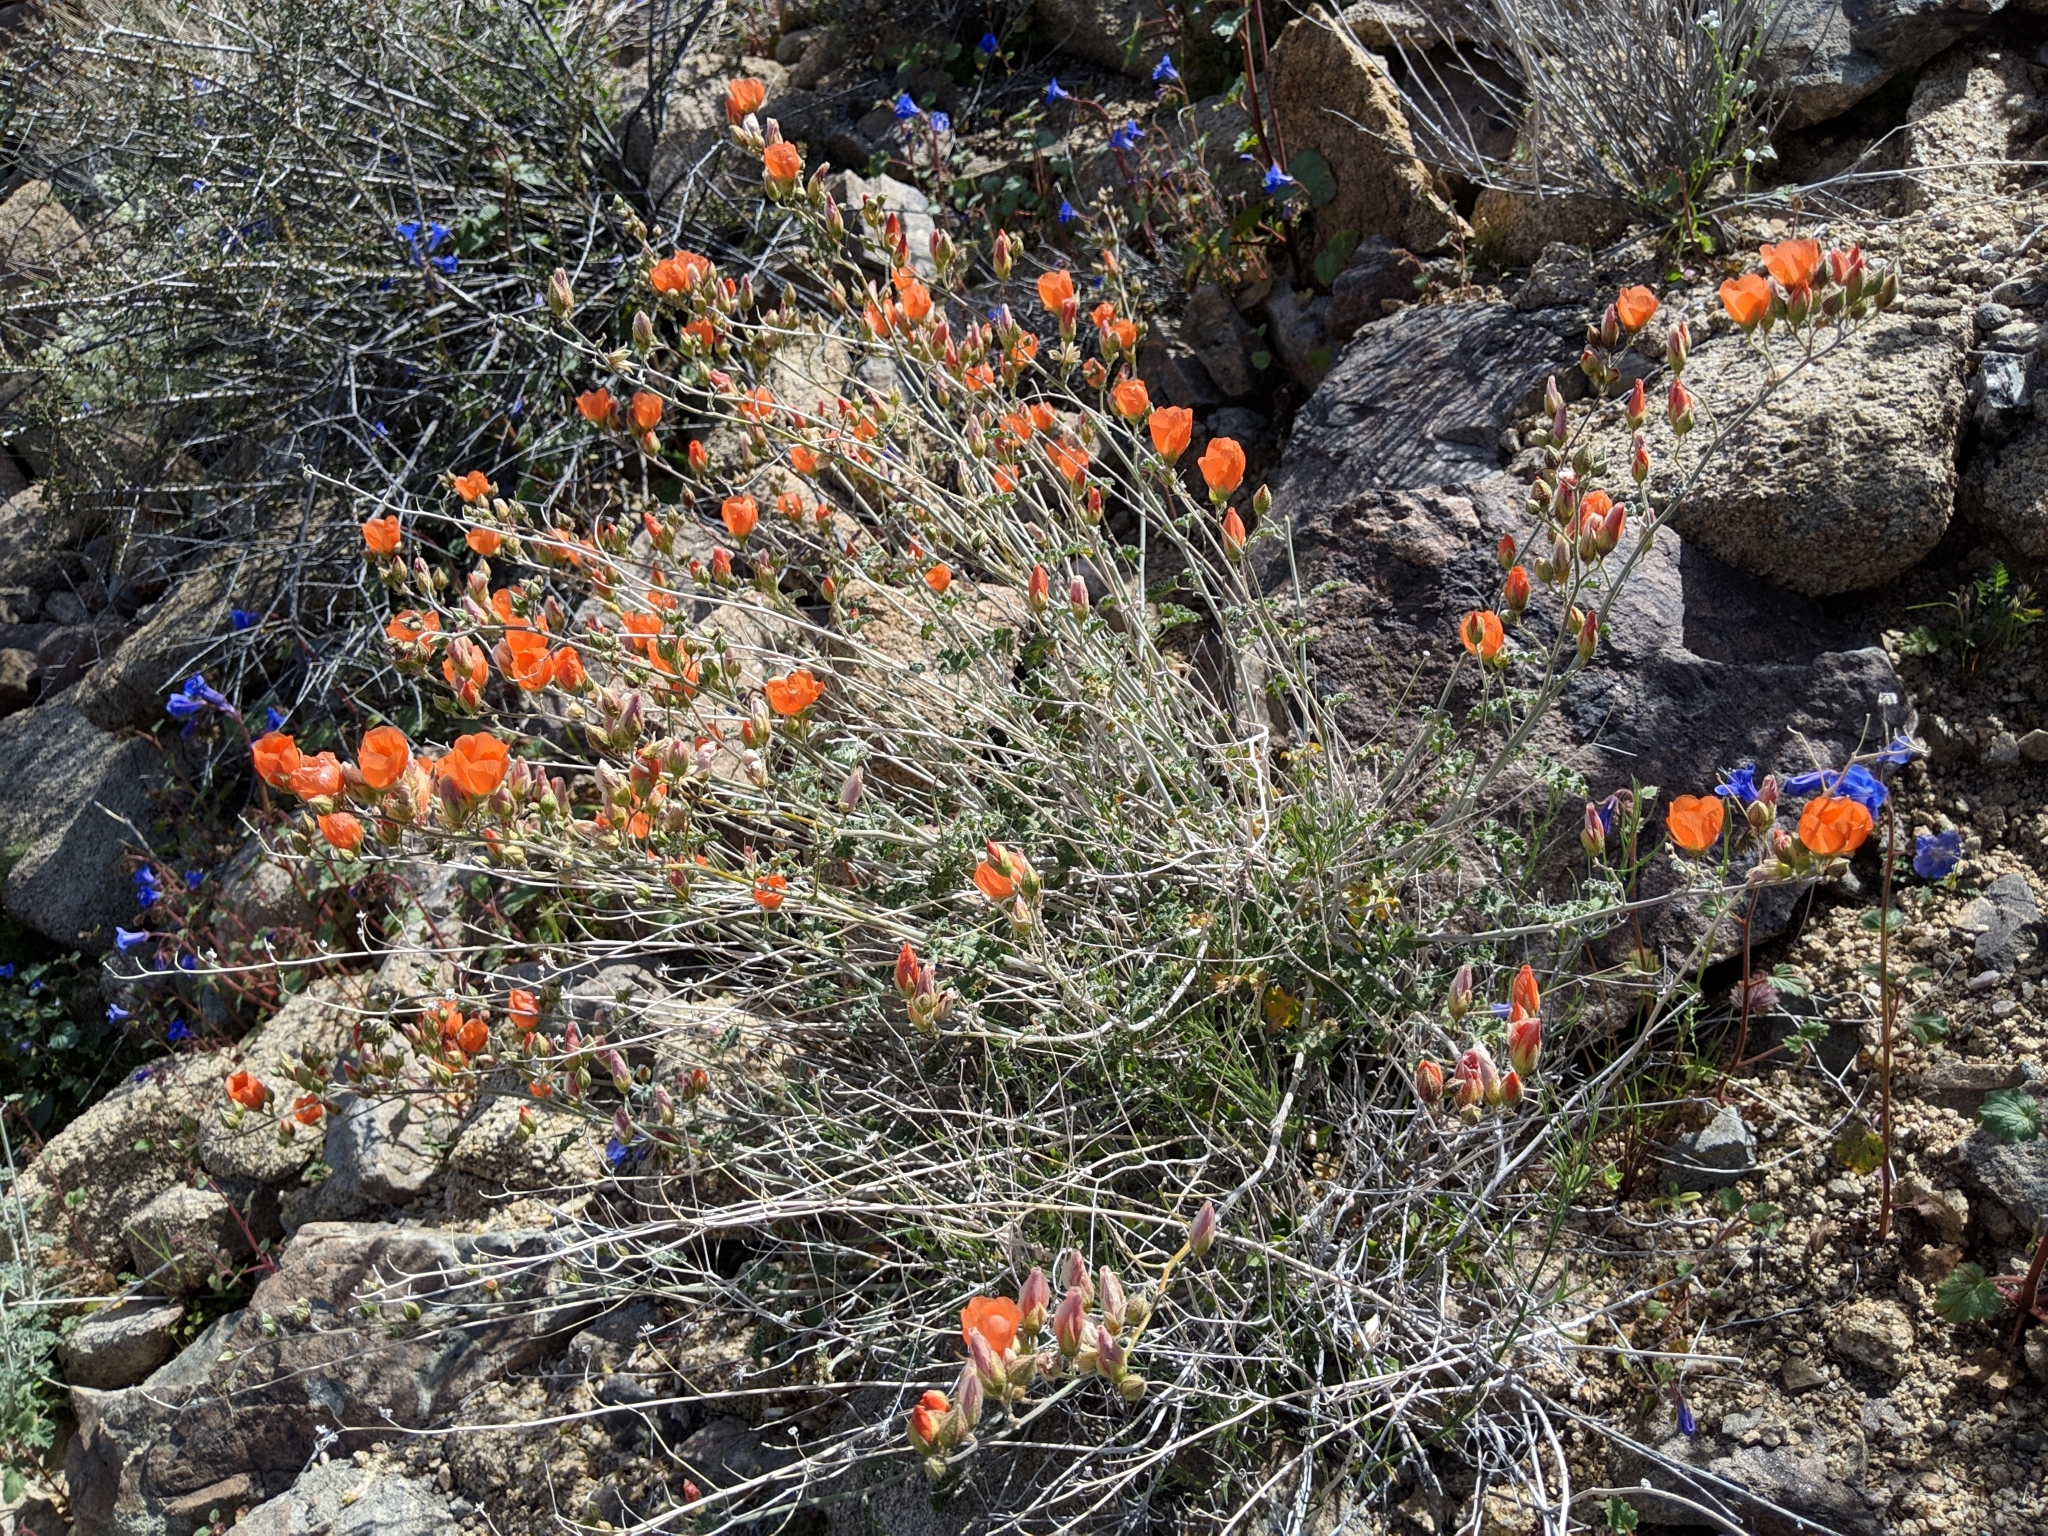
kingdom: Plantae
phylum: Tracheophyta
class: Magnoliopsida
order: Malvales
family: Malvaceae
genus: Sphaeralcea
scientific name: Sphaeralcea ambigua
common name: Apricot globe-mallow
